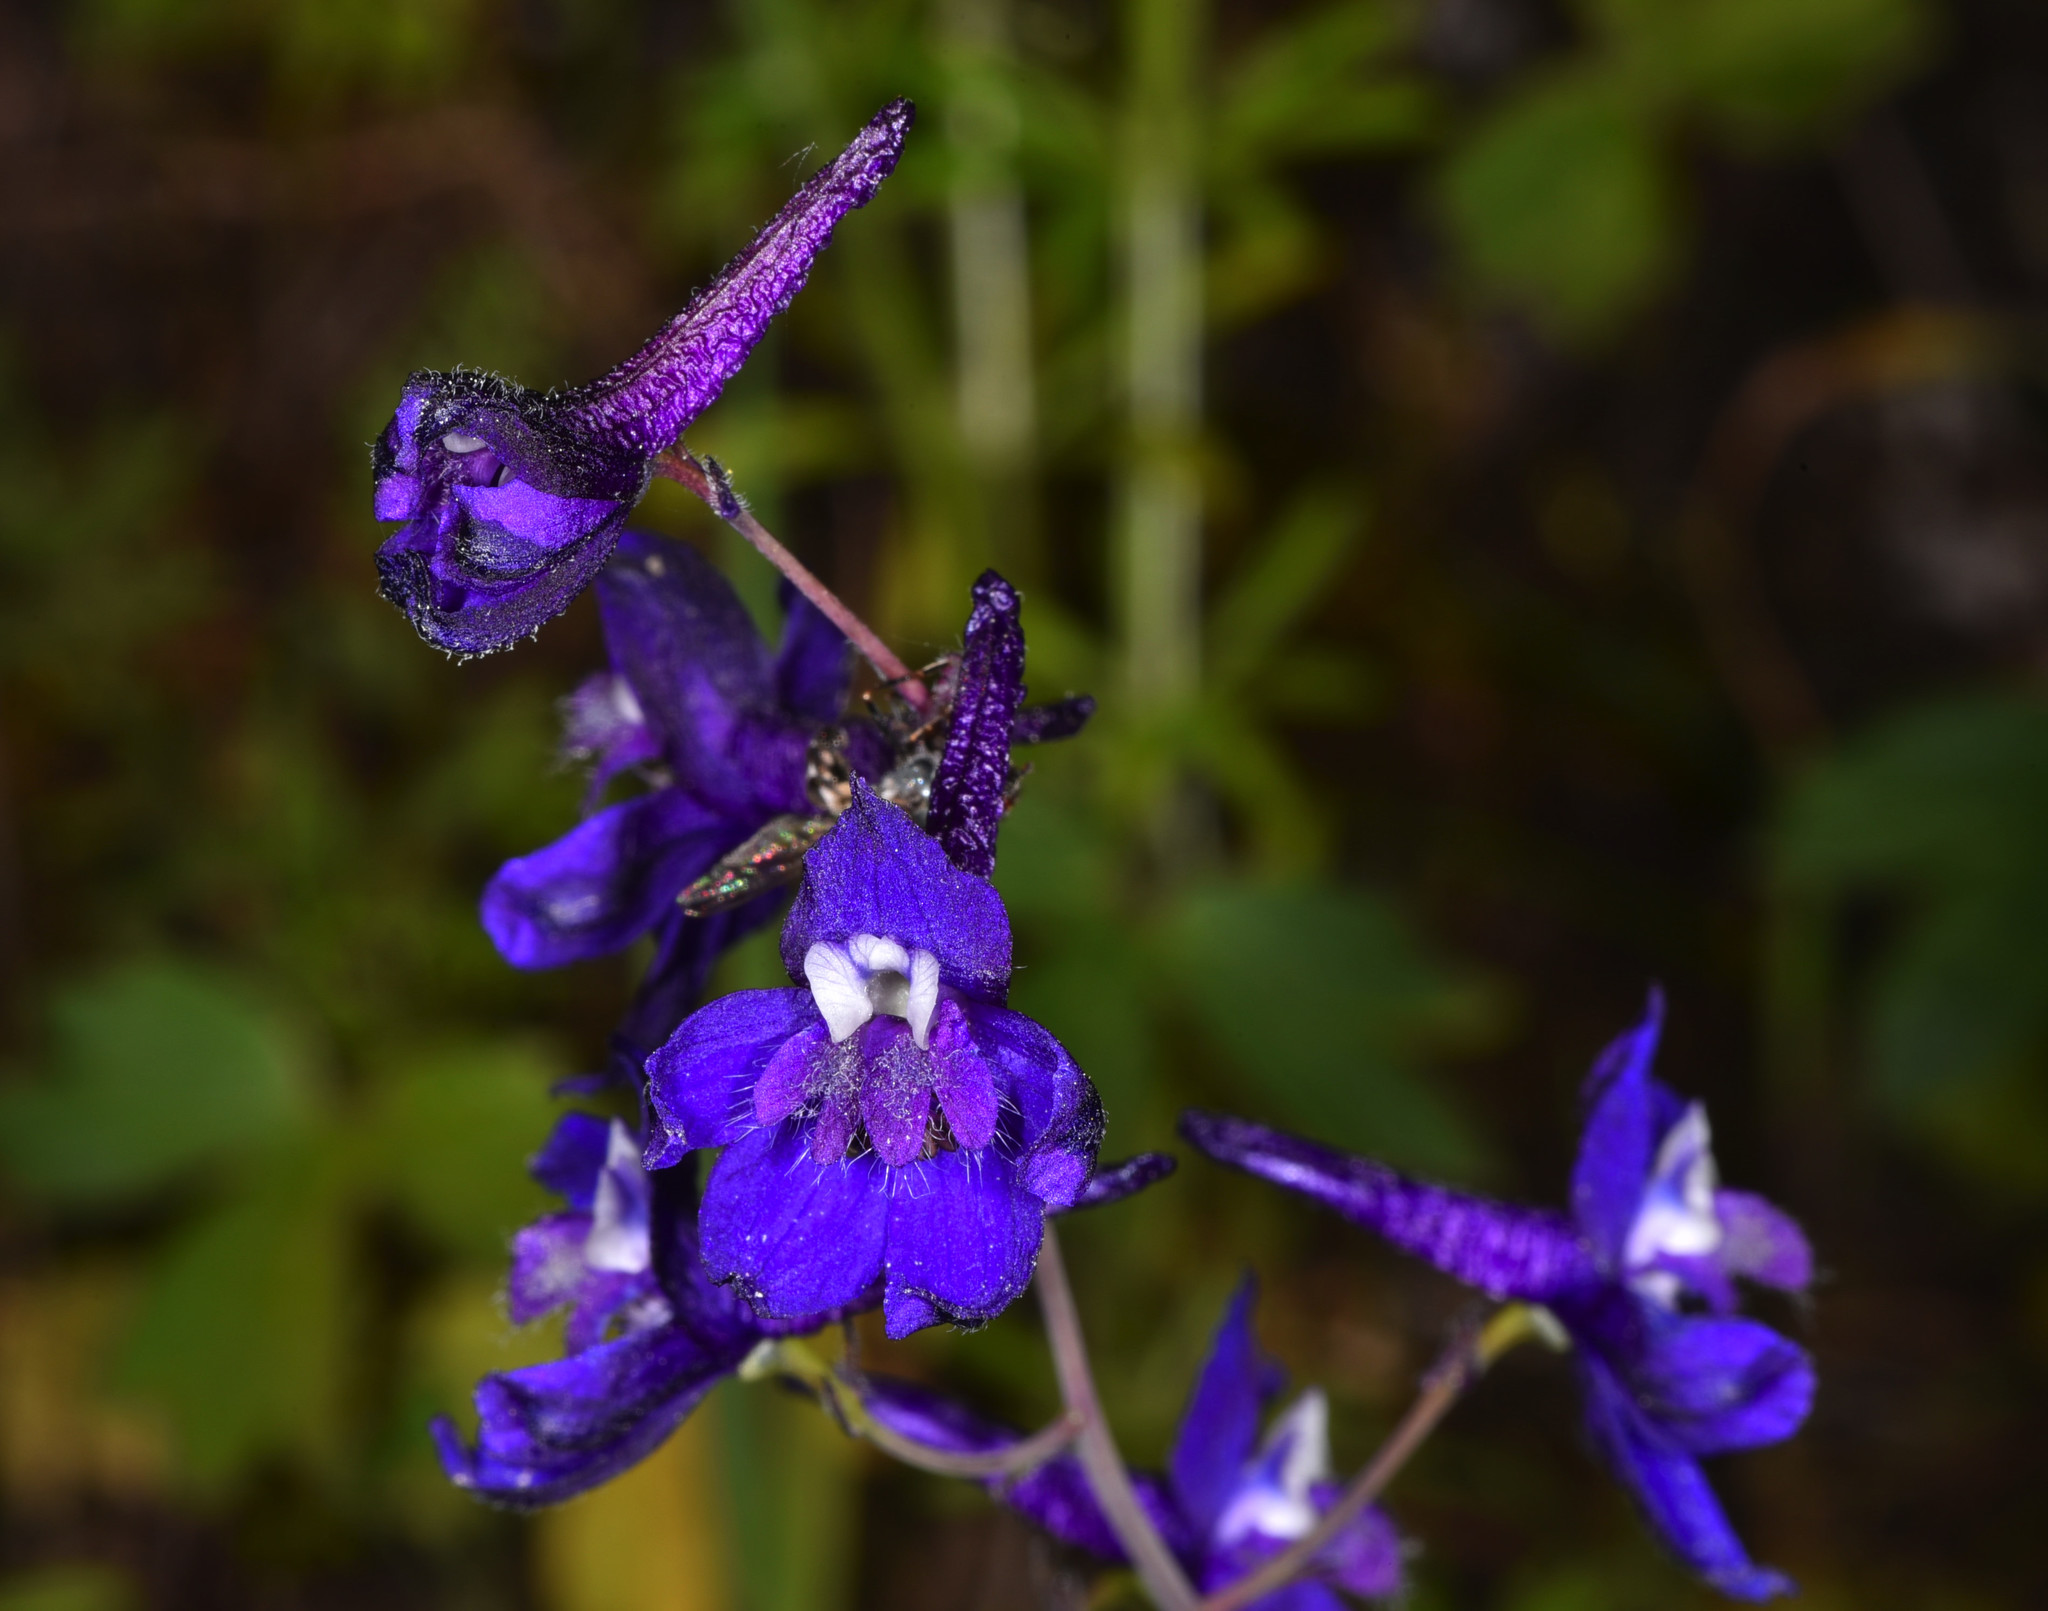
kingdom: Plantae
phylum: Tracheophyta
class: Magnoliopsida
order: Ranunculales
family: Ranunculaceae
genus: Delphinium
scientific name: Delphinium patens
